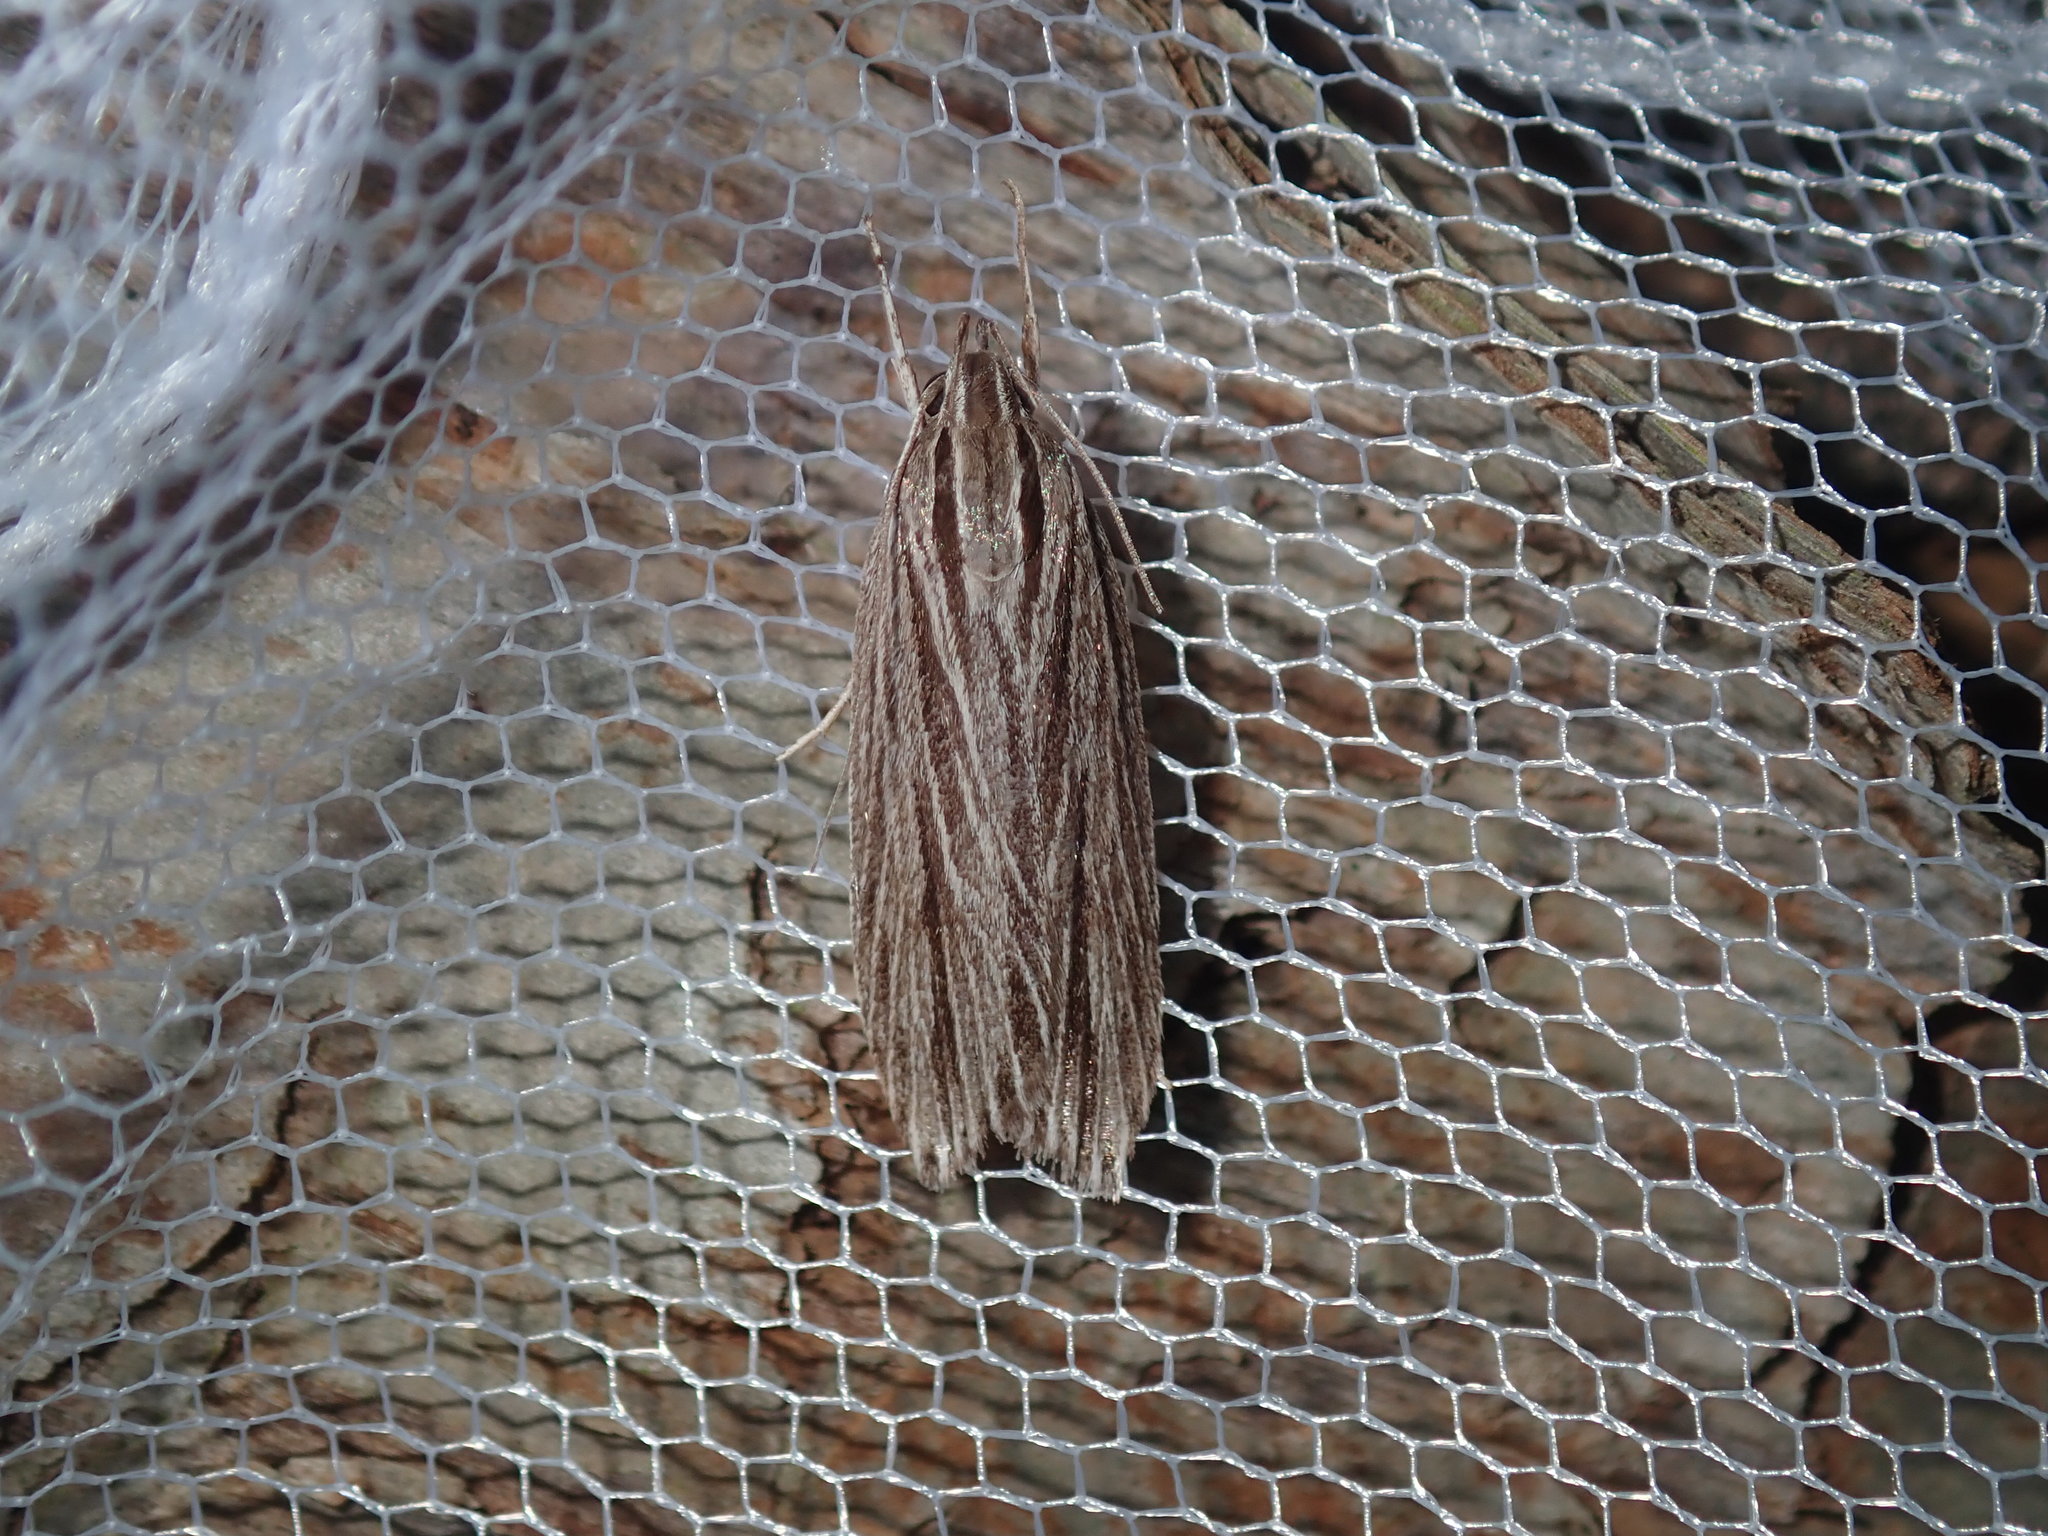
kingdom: Animalia
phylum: Arthropoda
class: Insecta
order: Lepidoptera
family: Xyloryctidae
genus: Leistarcha
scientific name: Leistarcha scitissimella
